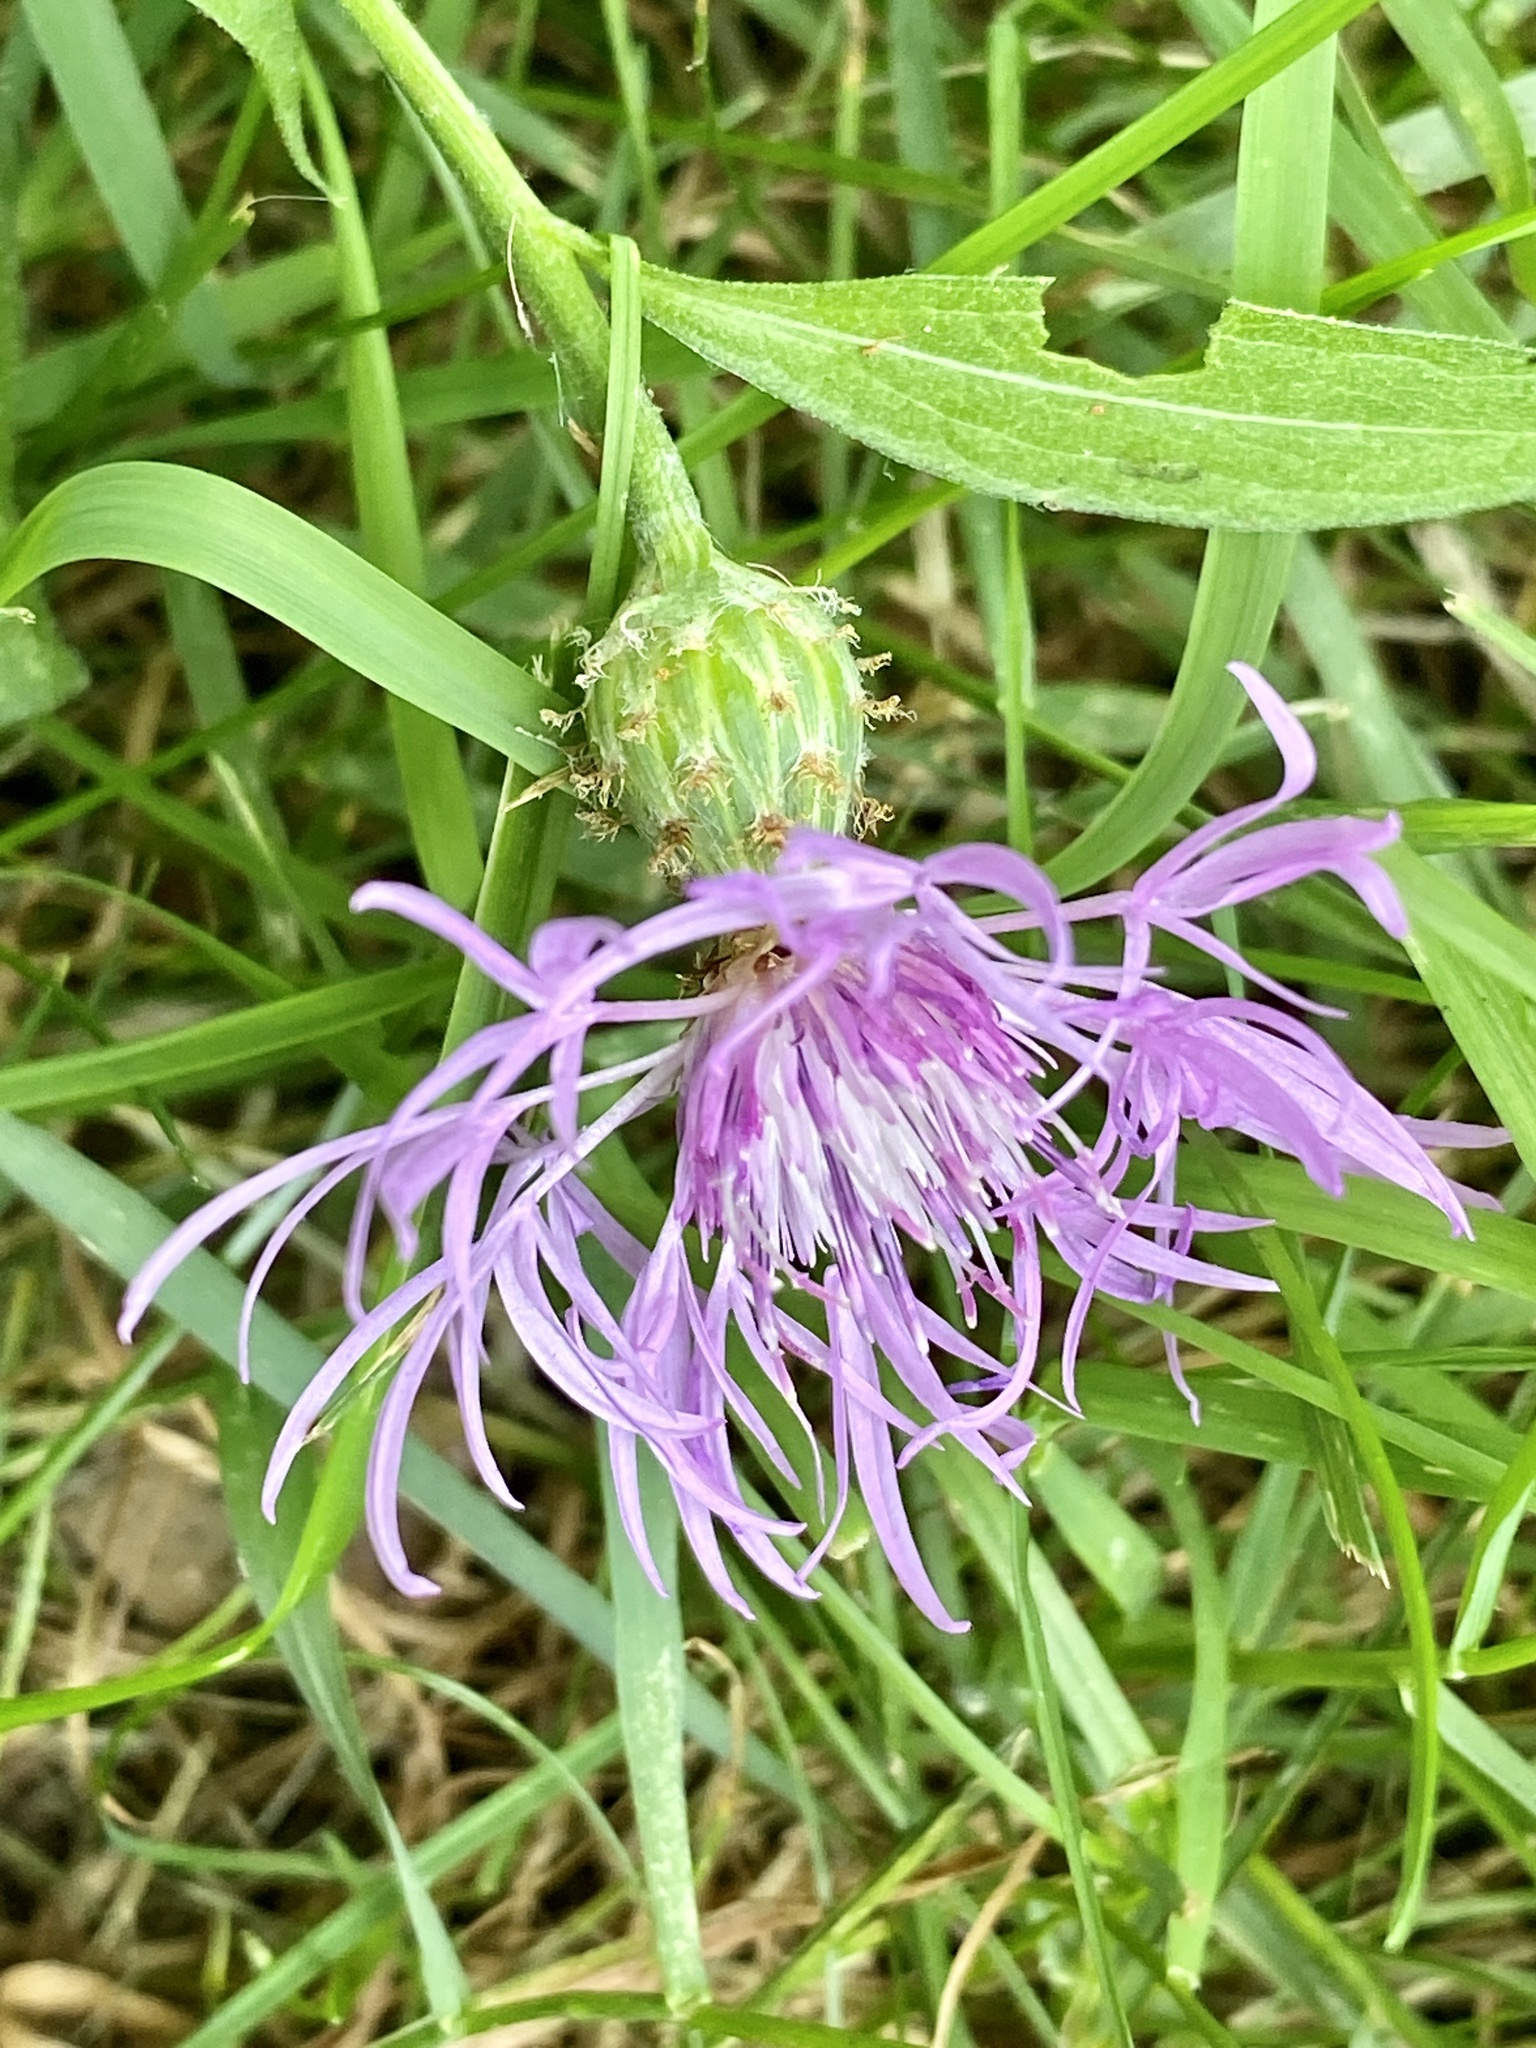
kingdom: Plantae
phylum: Tracheophyta
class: Magnoliopsida
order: Asterales
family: Asteraceae
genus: Centaurea
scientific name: Centaurea nigrescens
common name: Tyrol knapweed
